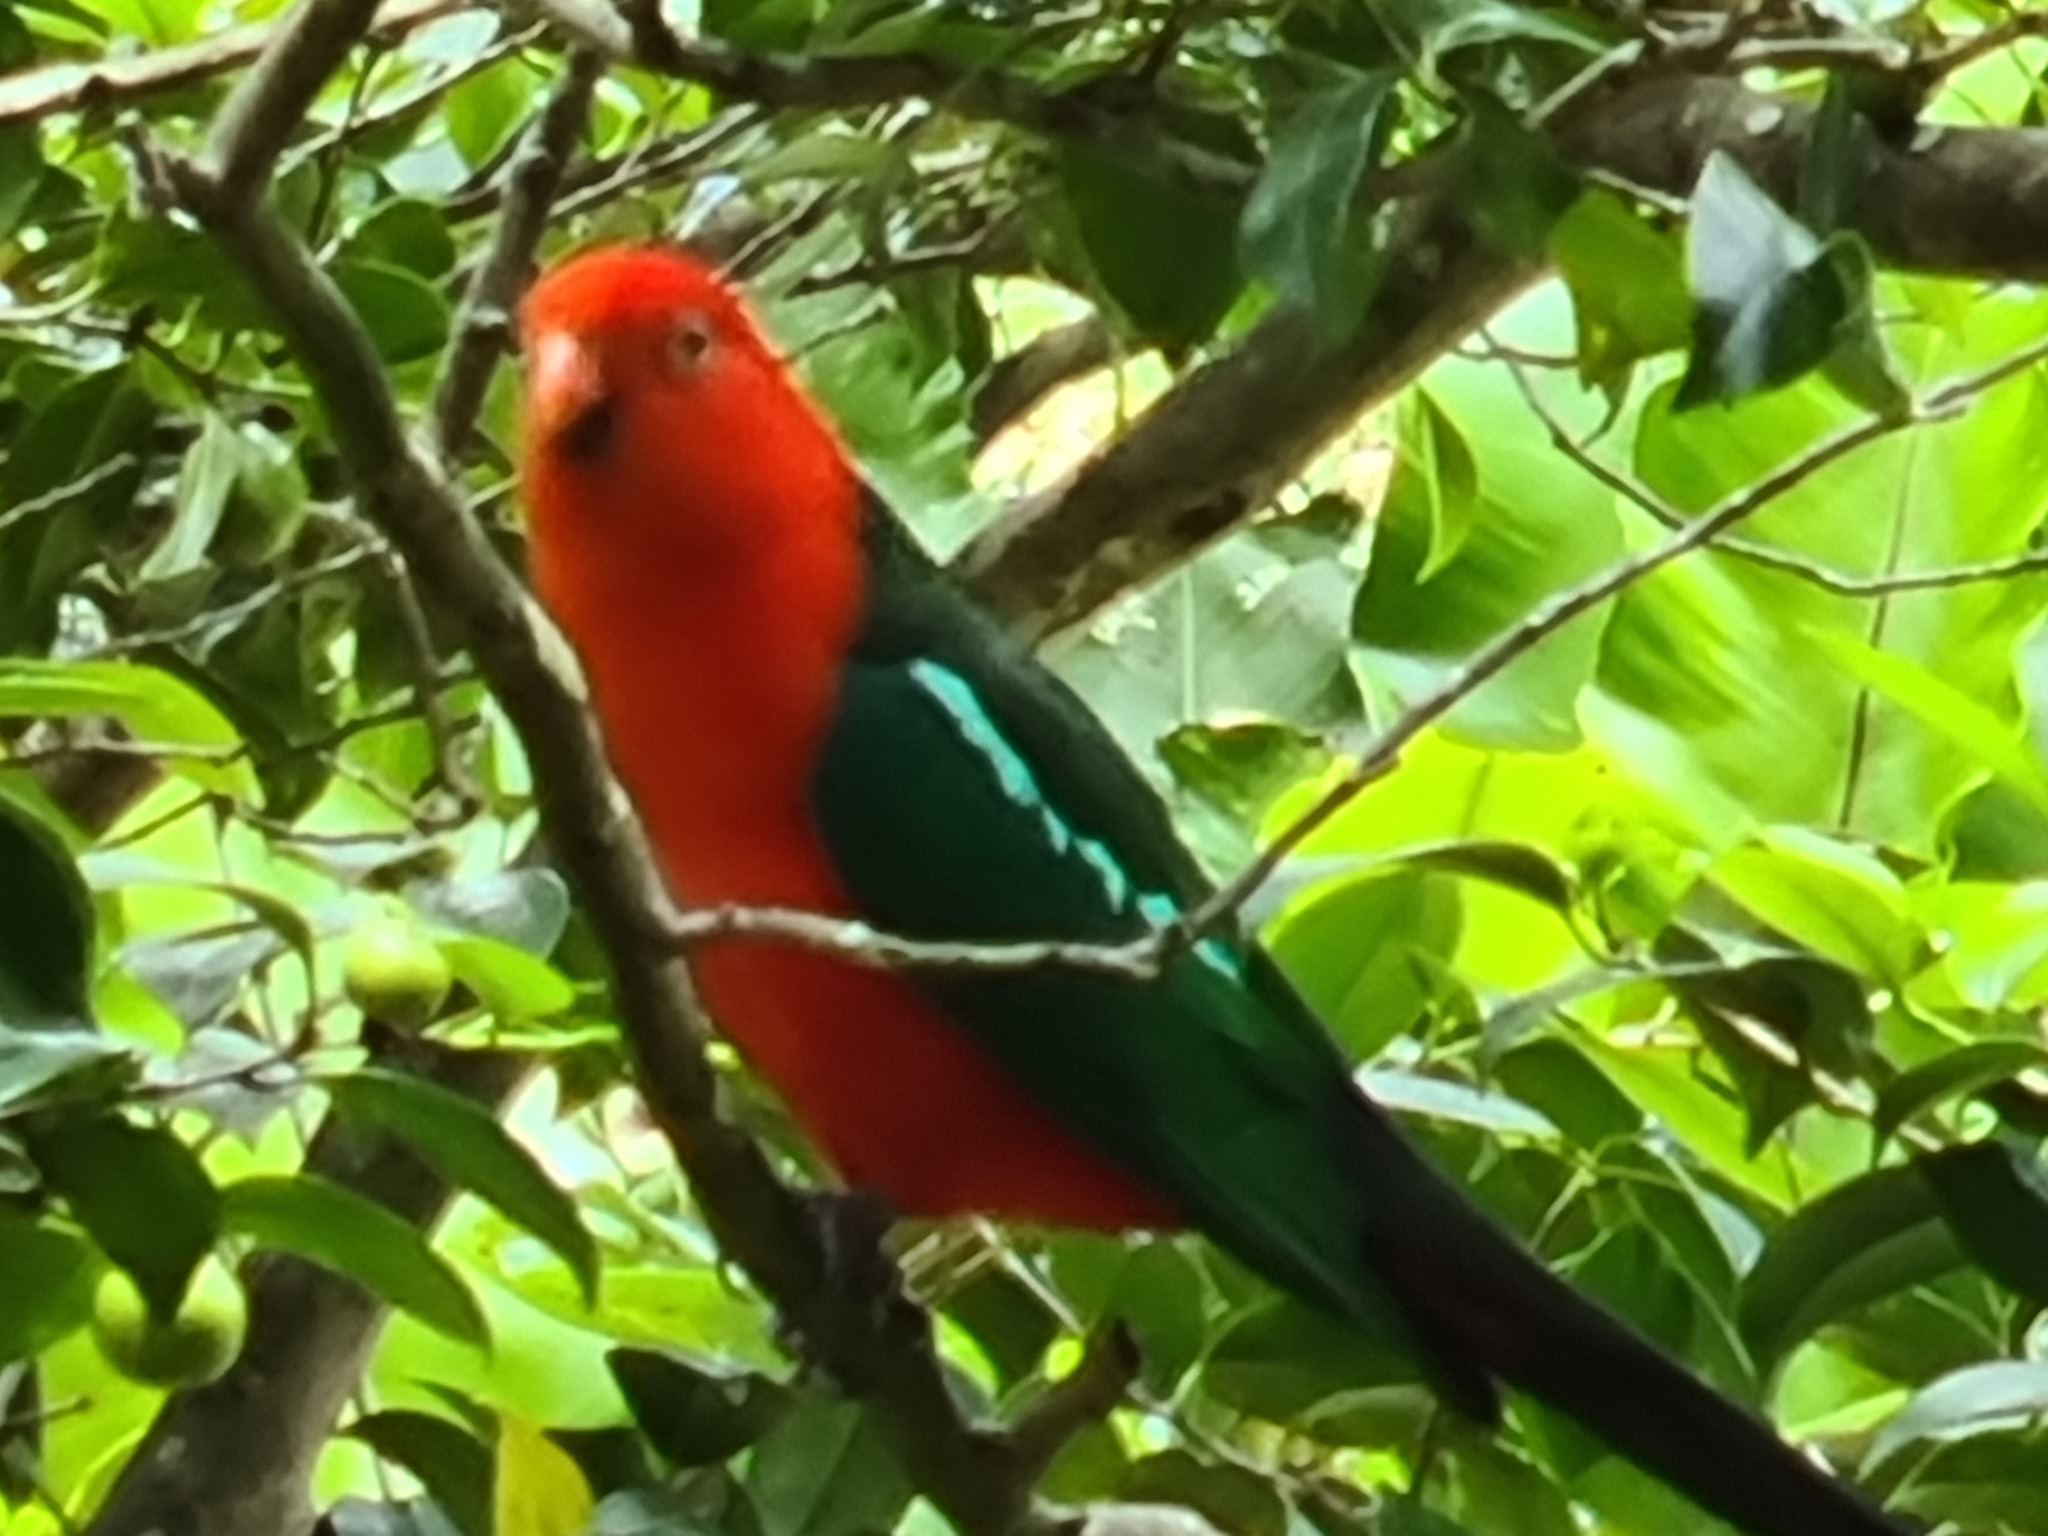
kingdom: Animalia
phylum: Chordata
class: Aves
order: Psittaciformes
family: Psittacidae
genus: Alisterus
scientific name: Alisterus scapularis
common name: Australian king parrot
